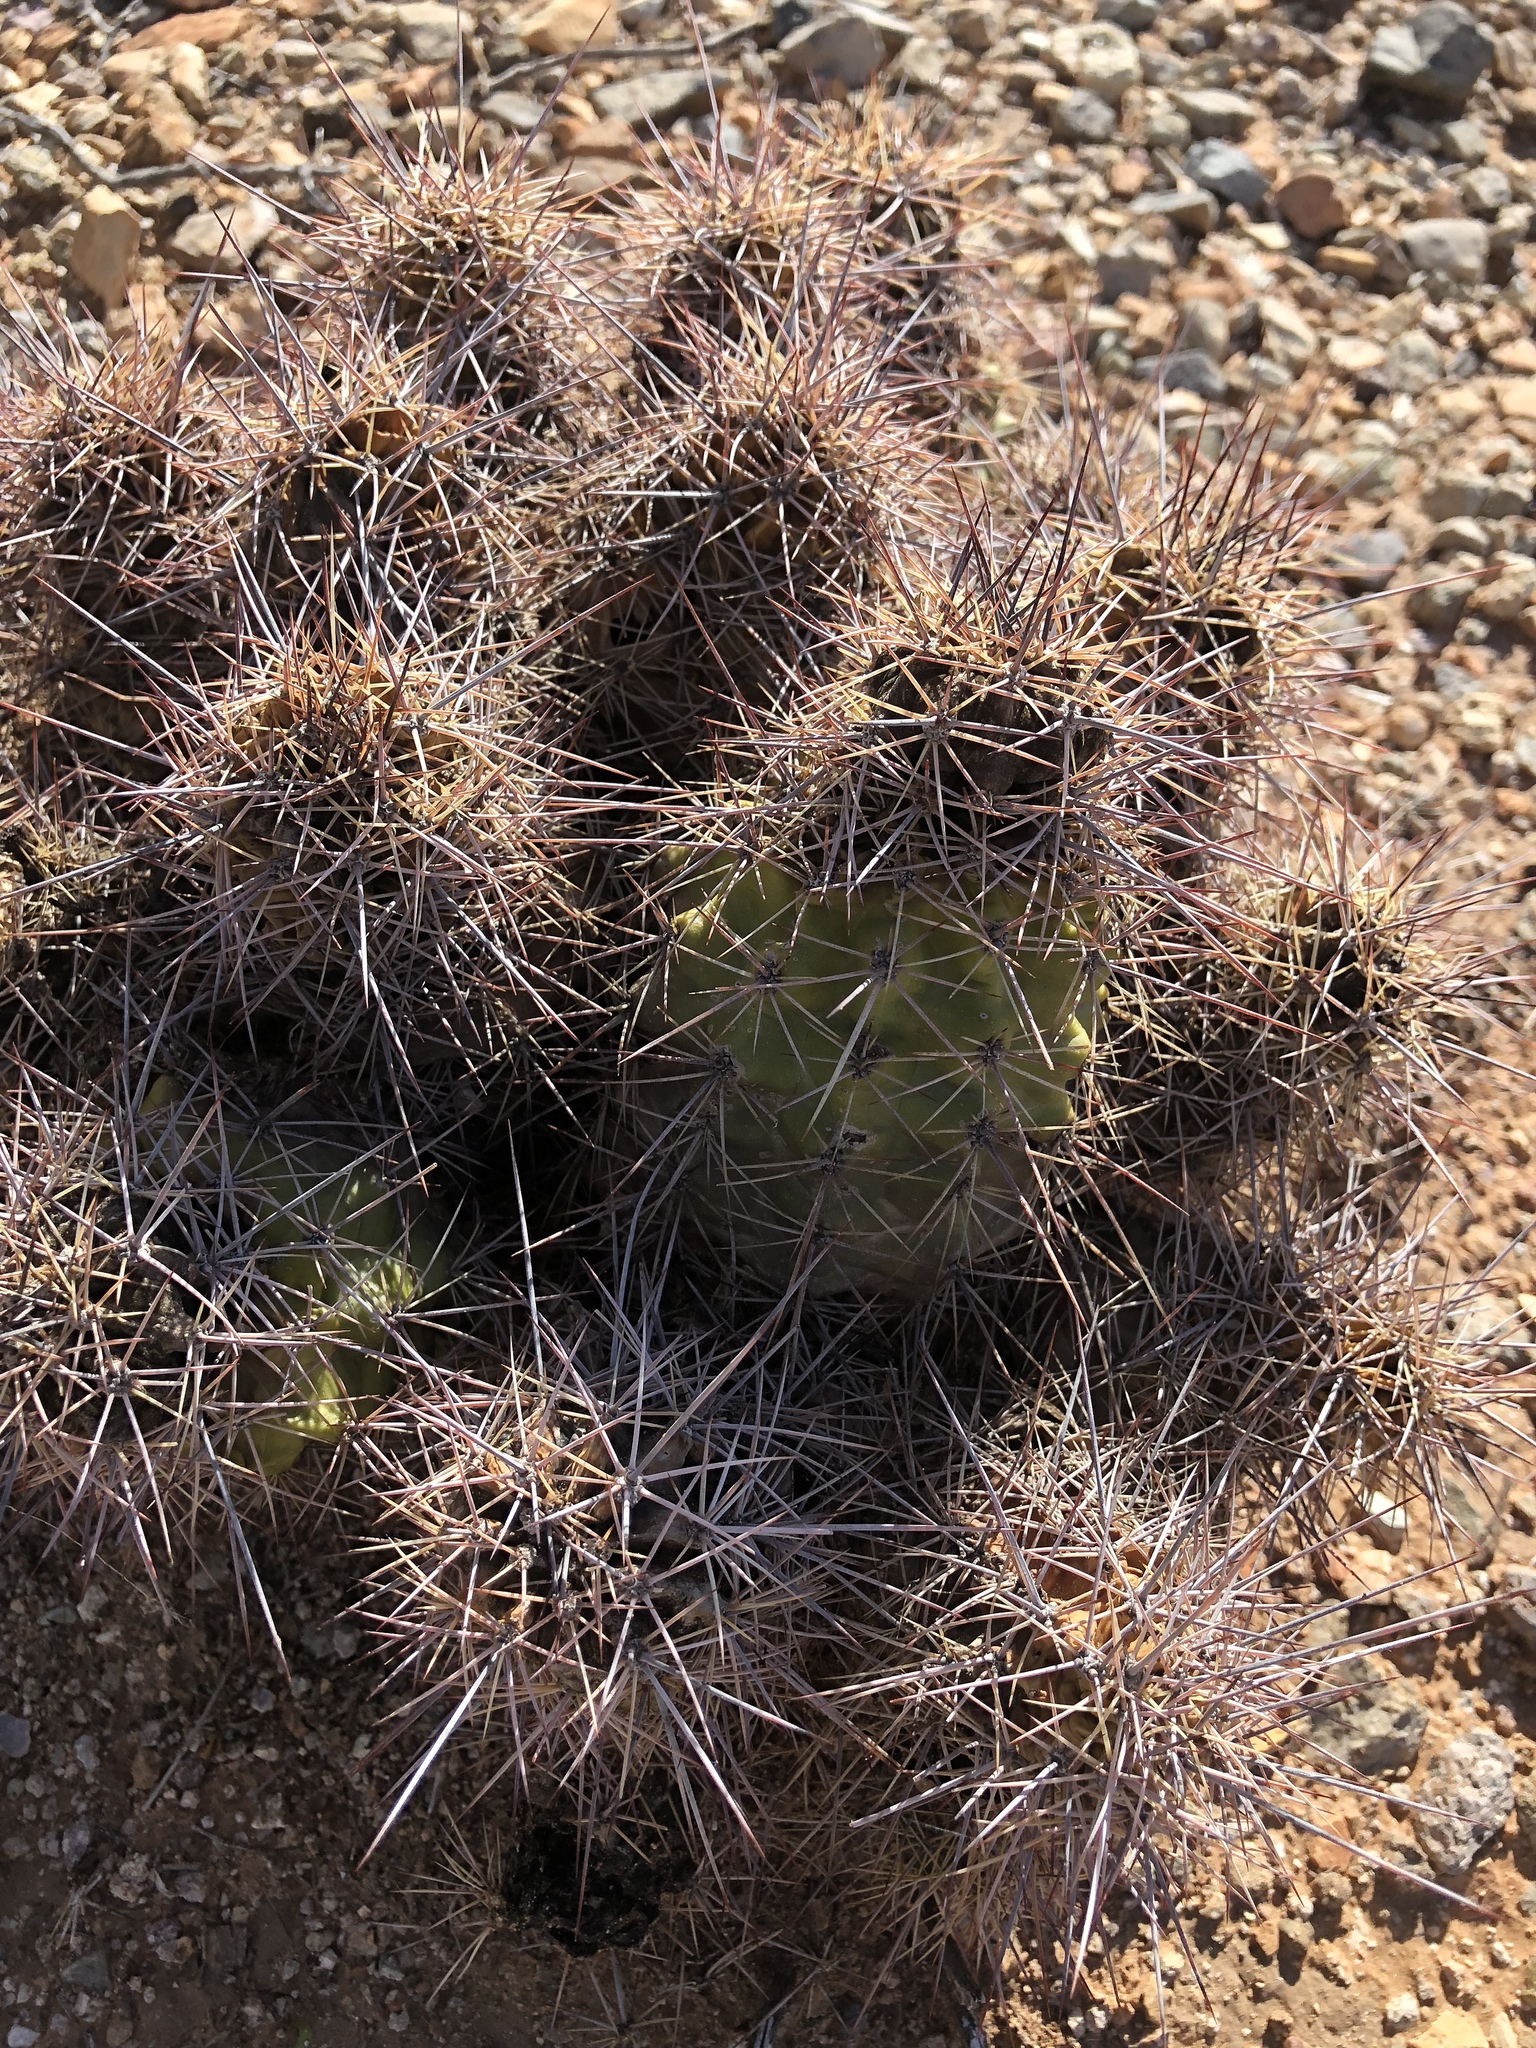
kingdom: Plantae
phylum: Tracheophyta
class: Magnoliopsida
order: Caryophyllales
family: Cactaceae
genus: Echinocereus
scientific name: Echinocereus coccineus
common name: Scarlet hedgehog cactus
